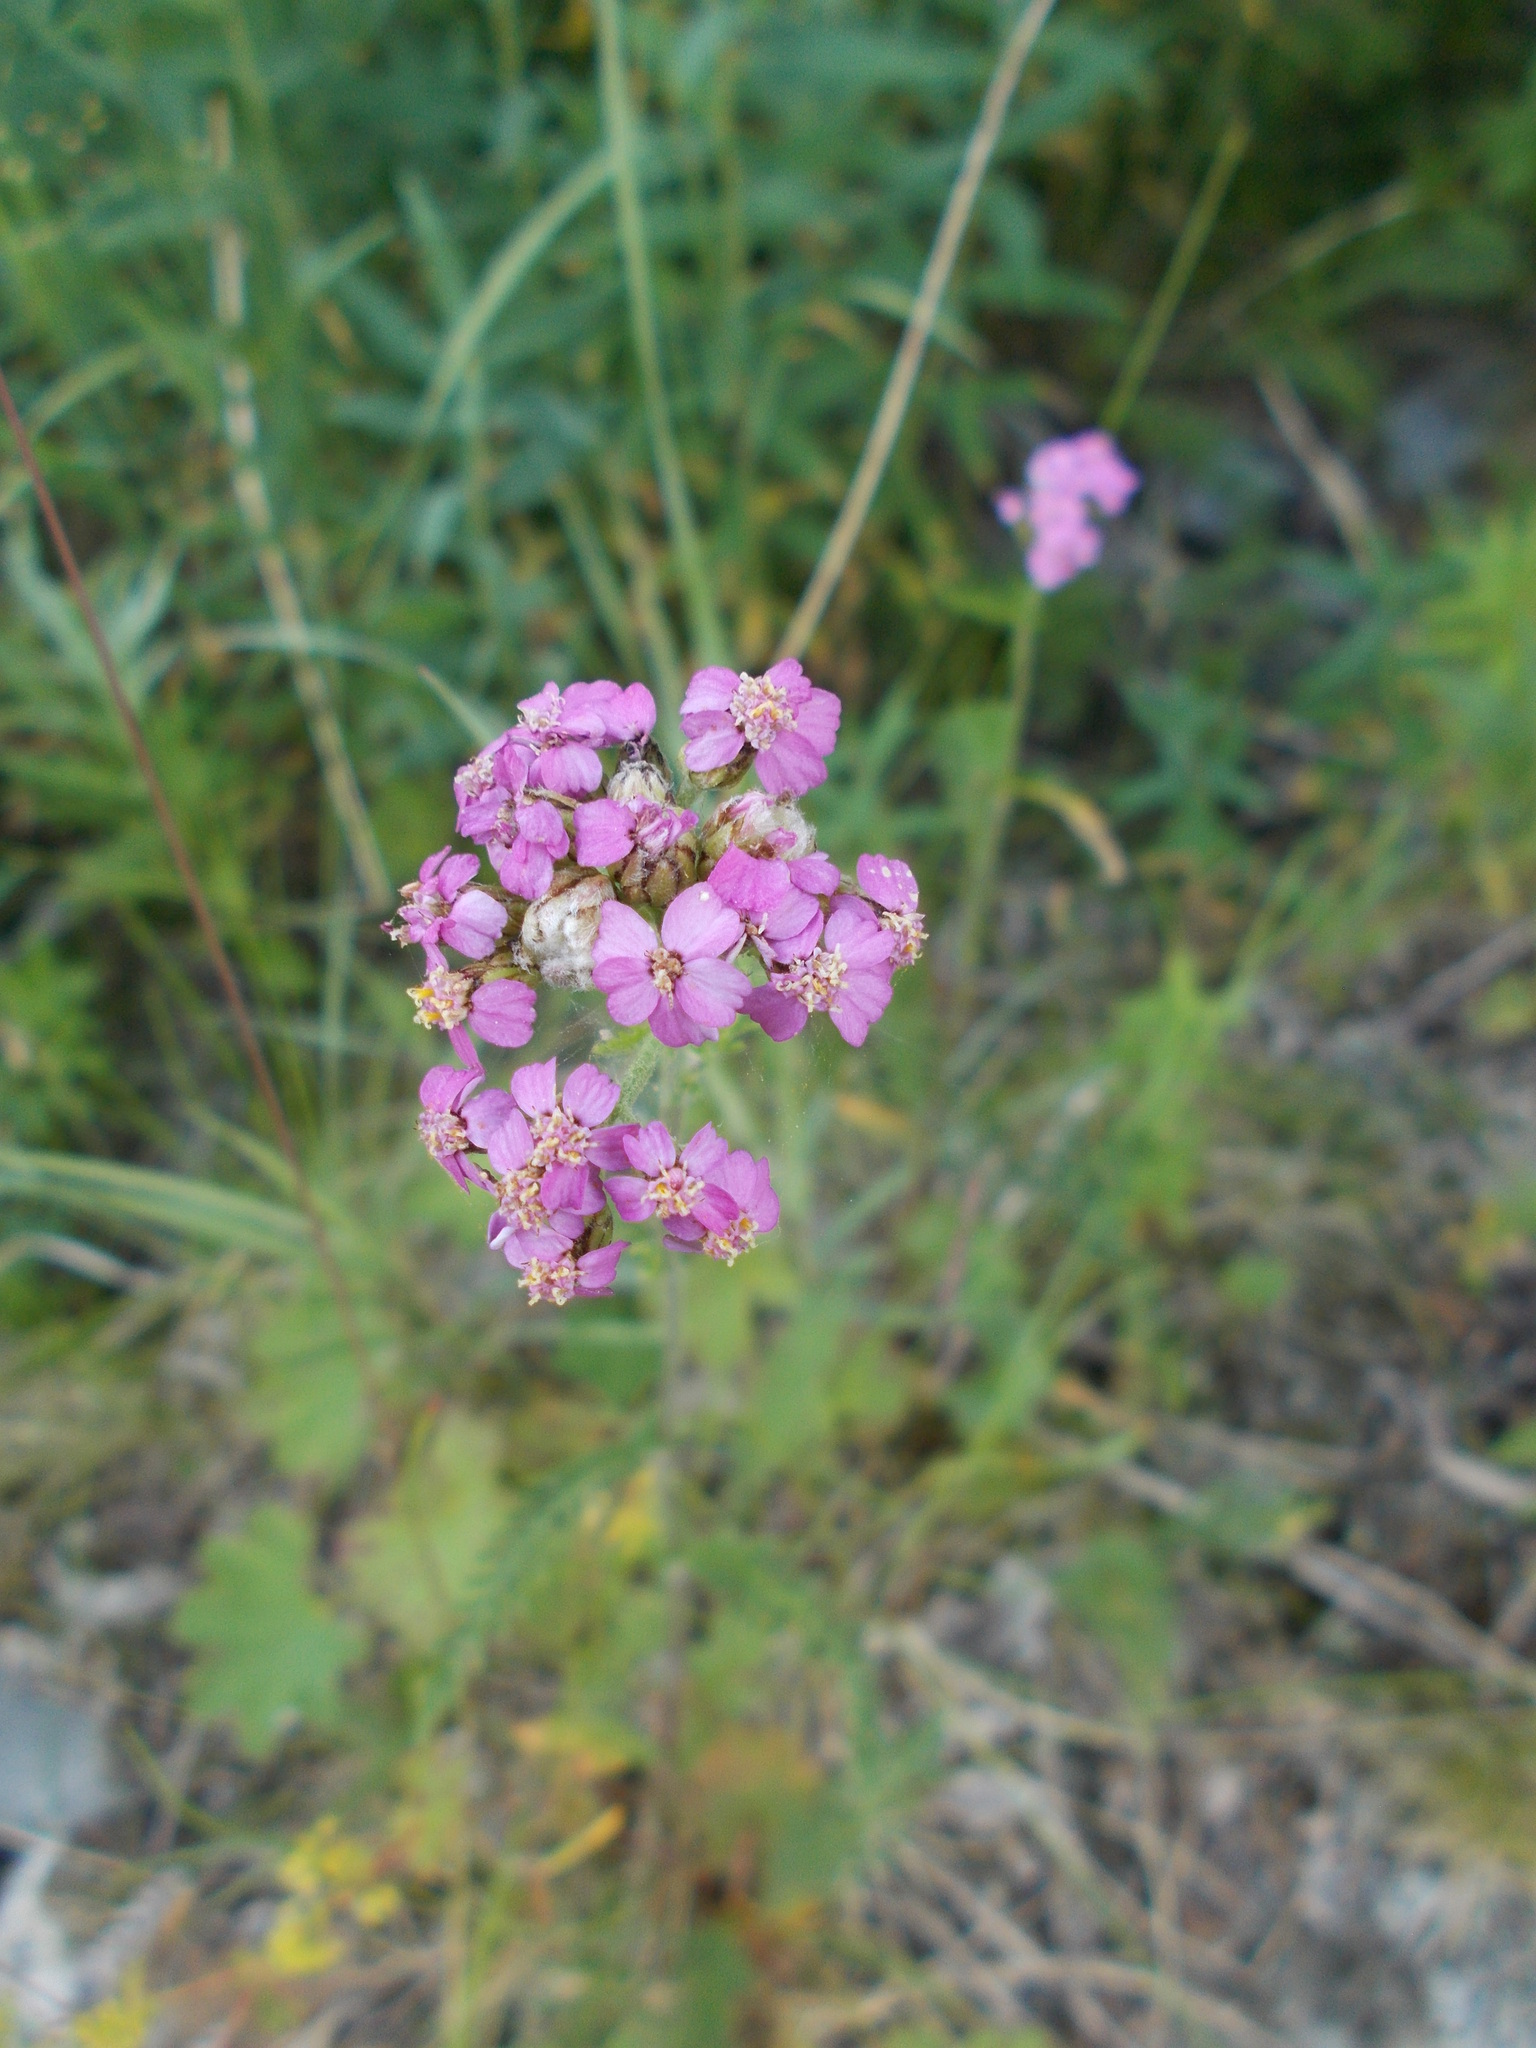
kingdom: Plantae
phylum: Tracheophyta
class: Magnoliopsida
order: Asterales
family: Asteraceae
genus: Achillea
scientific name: Achillea asiatica
